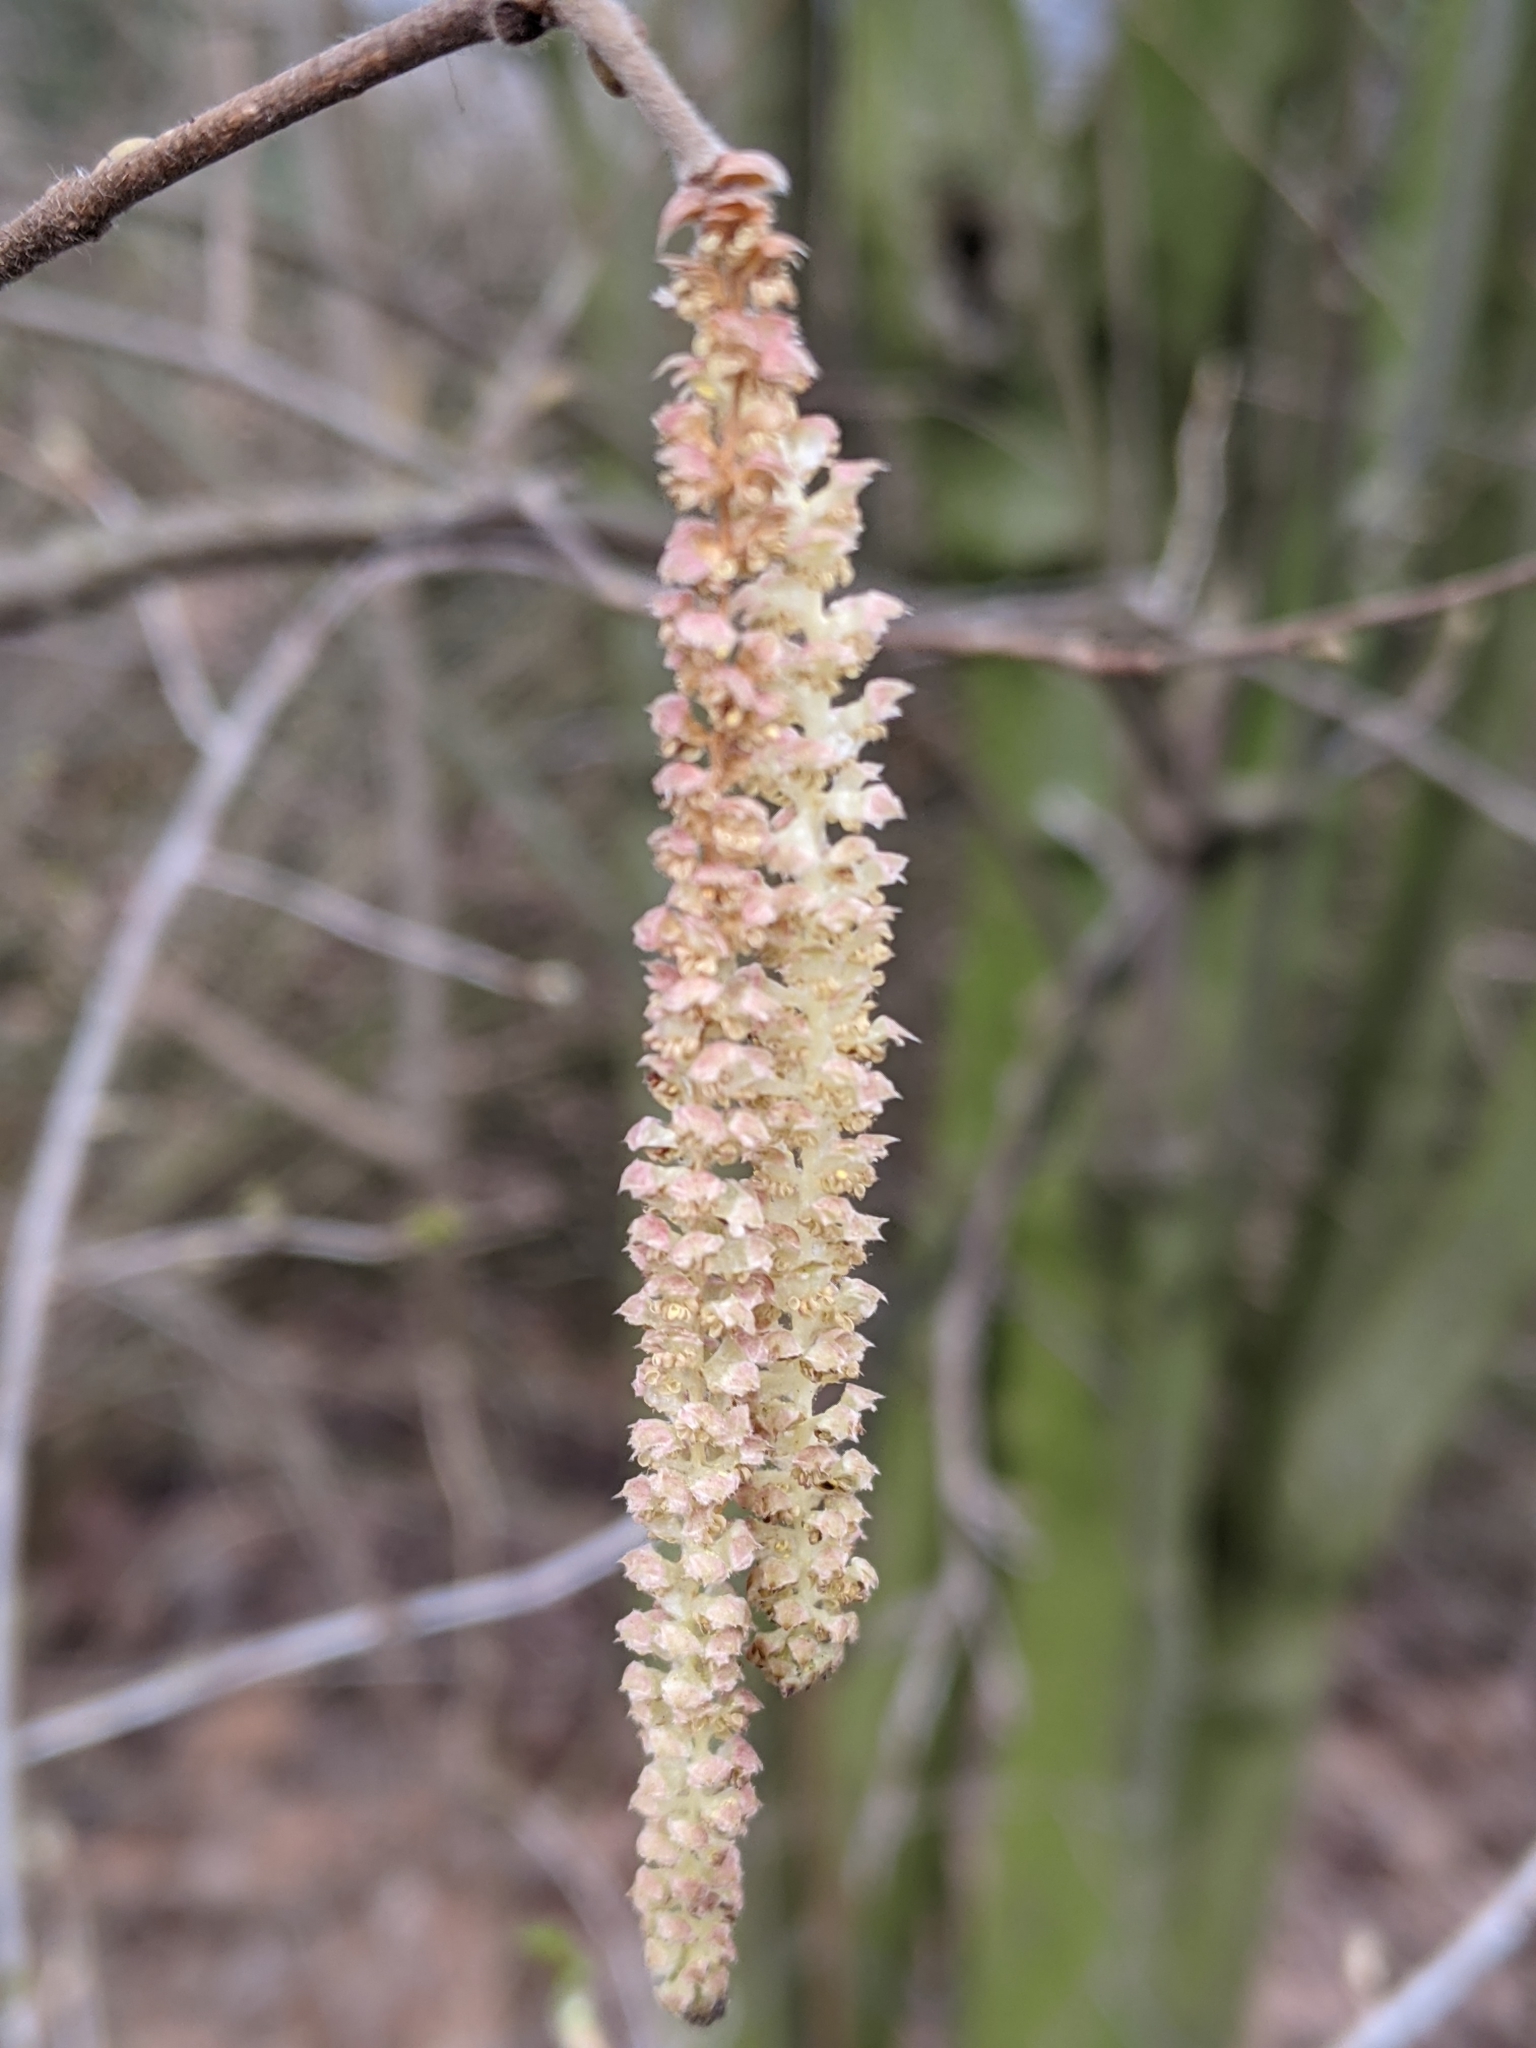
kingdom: Plantae
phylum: Tracheophyta
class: Magnoliopsida
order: Fagales
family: Betulaceae
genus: Corylus
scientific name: Corylus avellana
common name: European hazel
